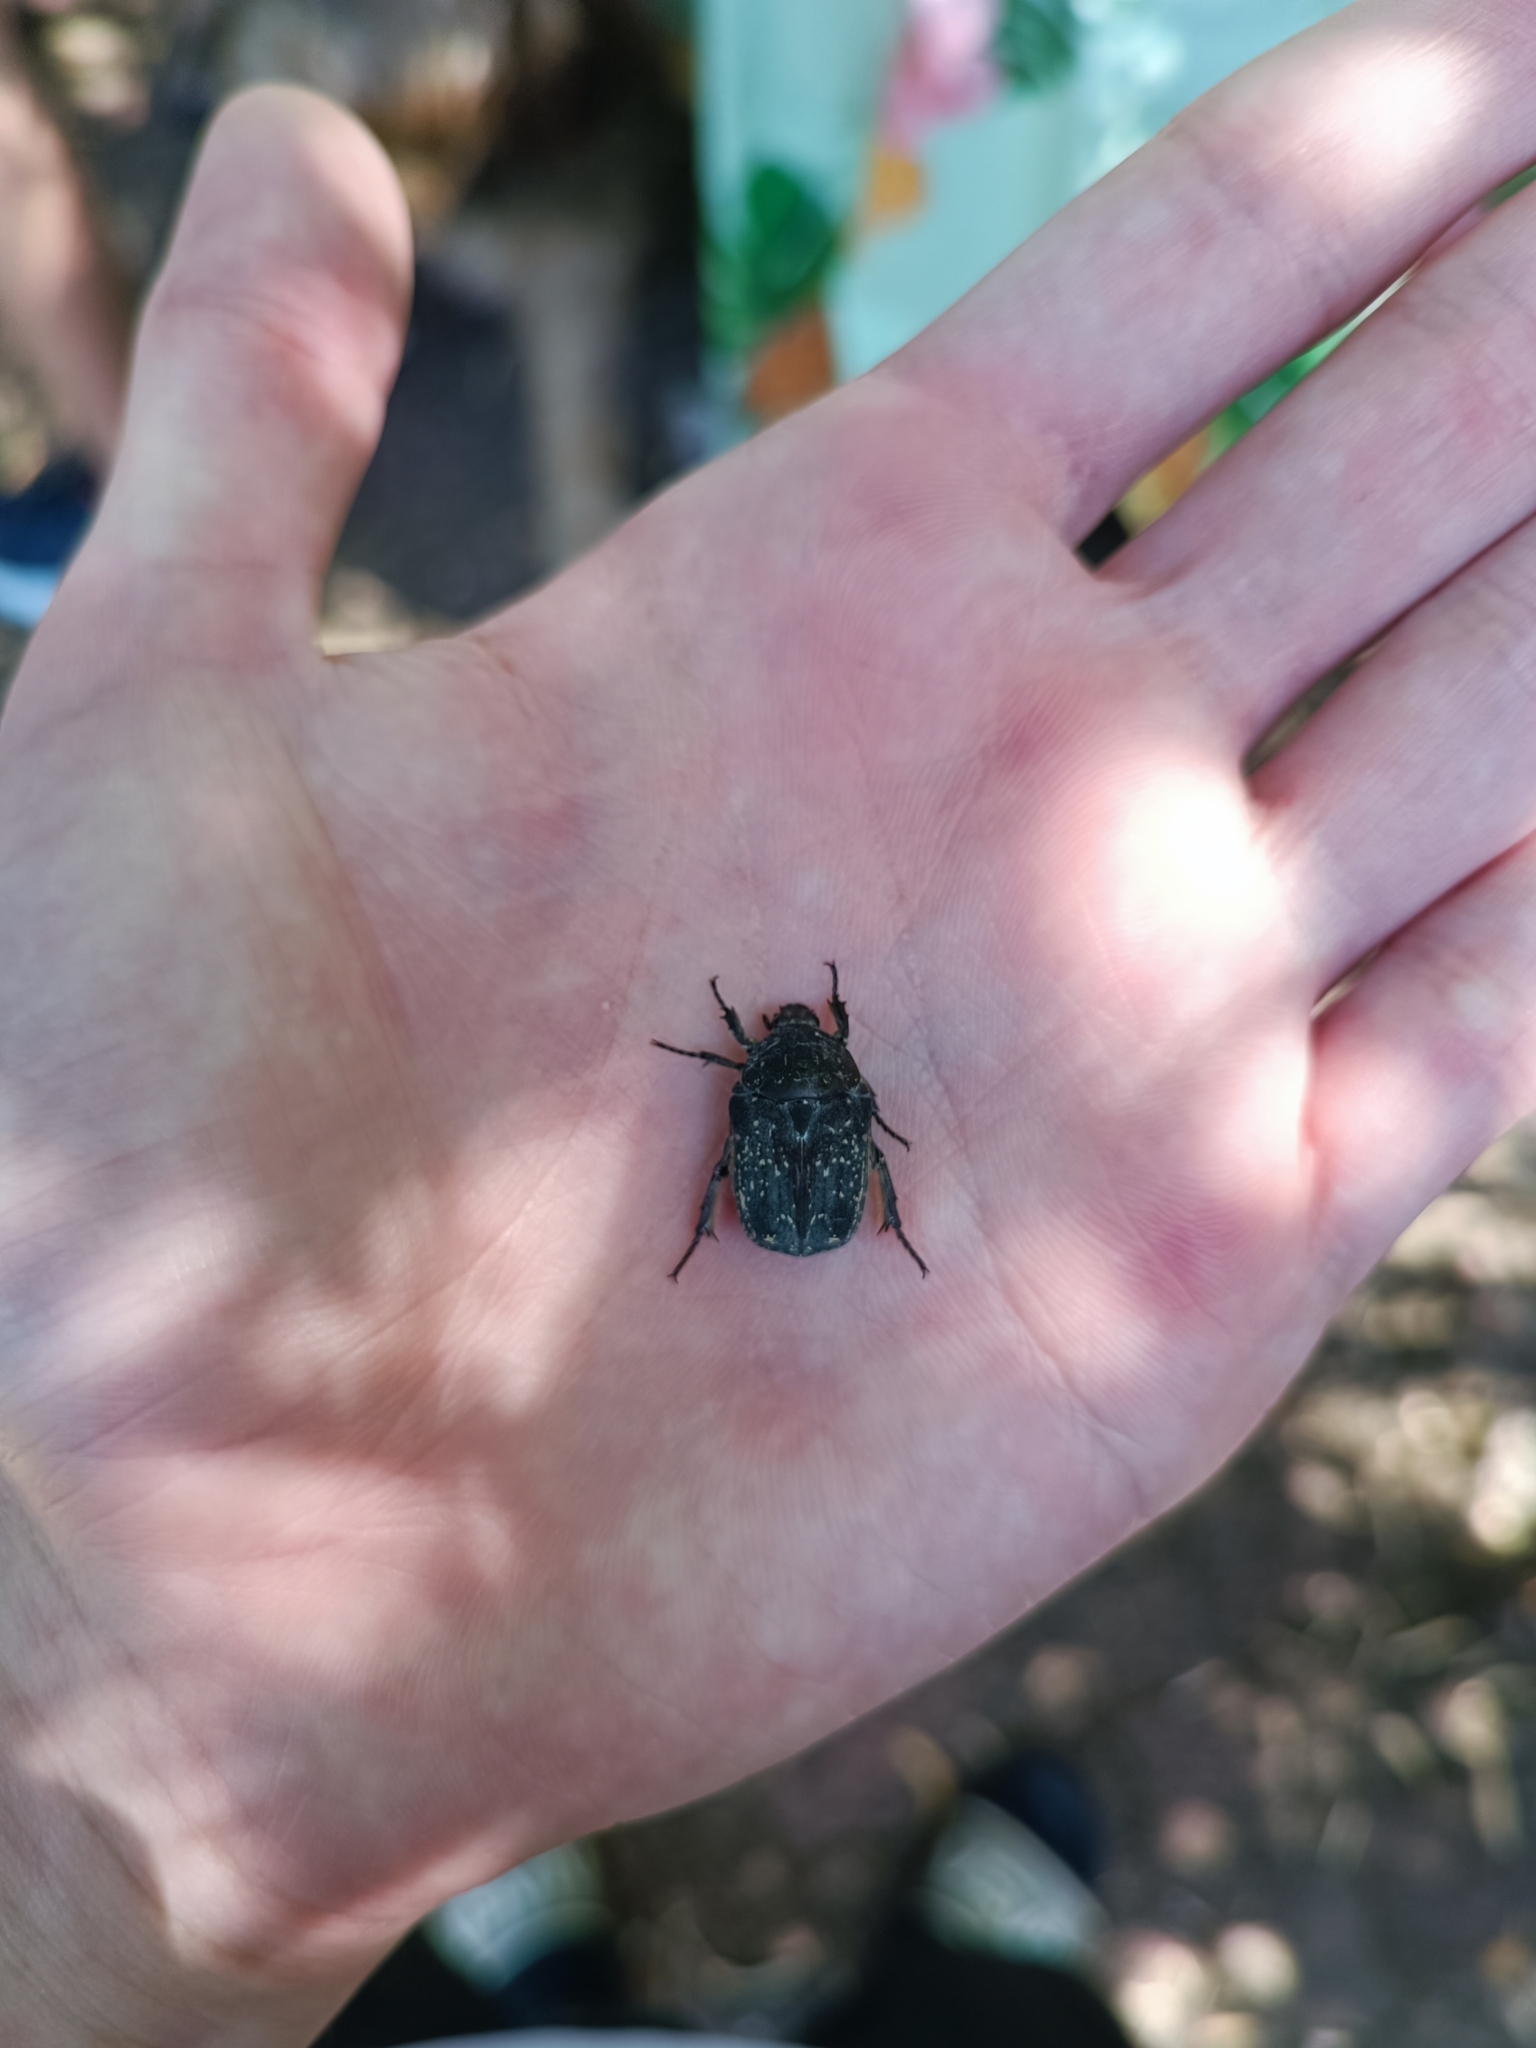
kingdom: Animalia
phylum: Arthropoda
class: Insecta
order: Coleoptera
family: Scarabaeidae
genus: Protaetia
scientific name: Protaetia morio
